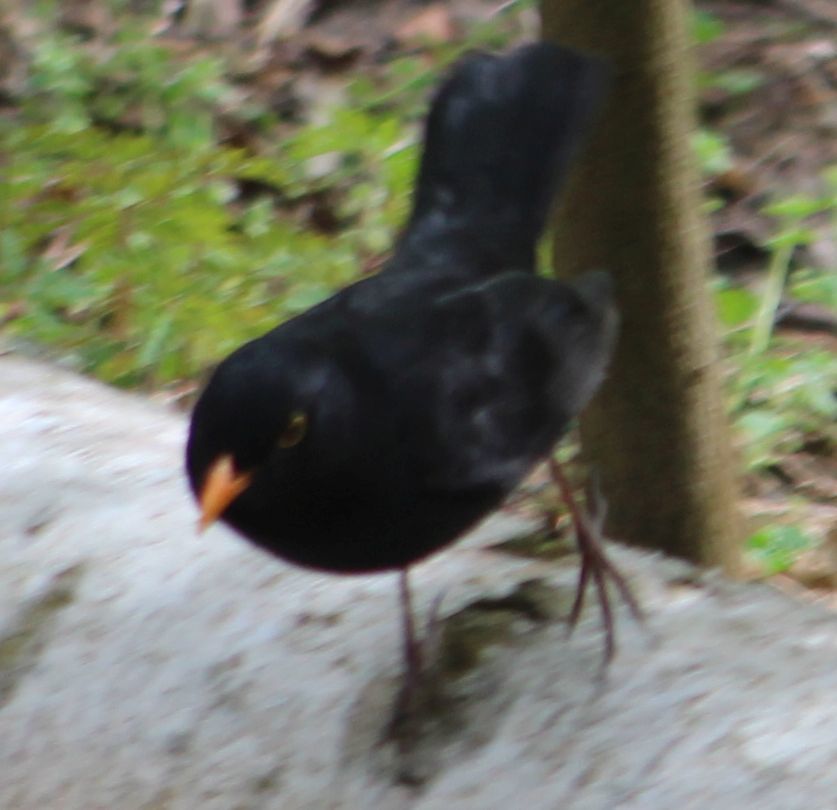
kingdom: Animalia
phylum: Chordata
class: Aves
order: Passeriformes
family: Turdidae
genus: Turdus
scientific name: Turdus merula
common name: Common blackbird
